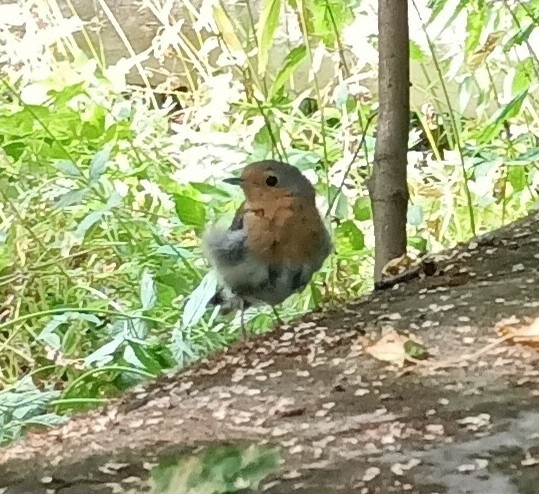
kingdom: Animalia
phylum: Chordata
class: Aves
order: Passeriformes
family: Muscicapidae
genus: Erithacus
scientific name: Erithacus rubecula
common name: European robin
